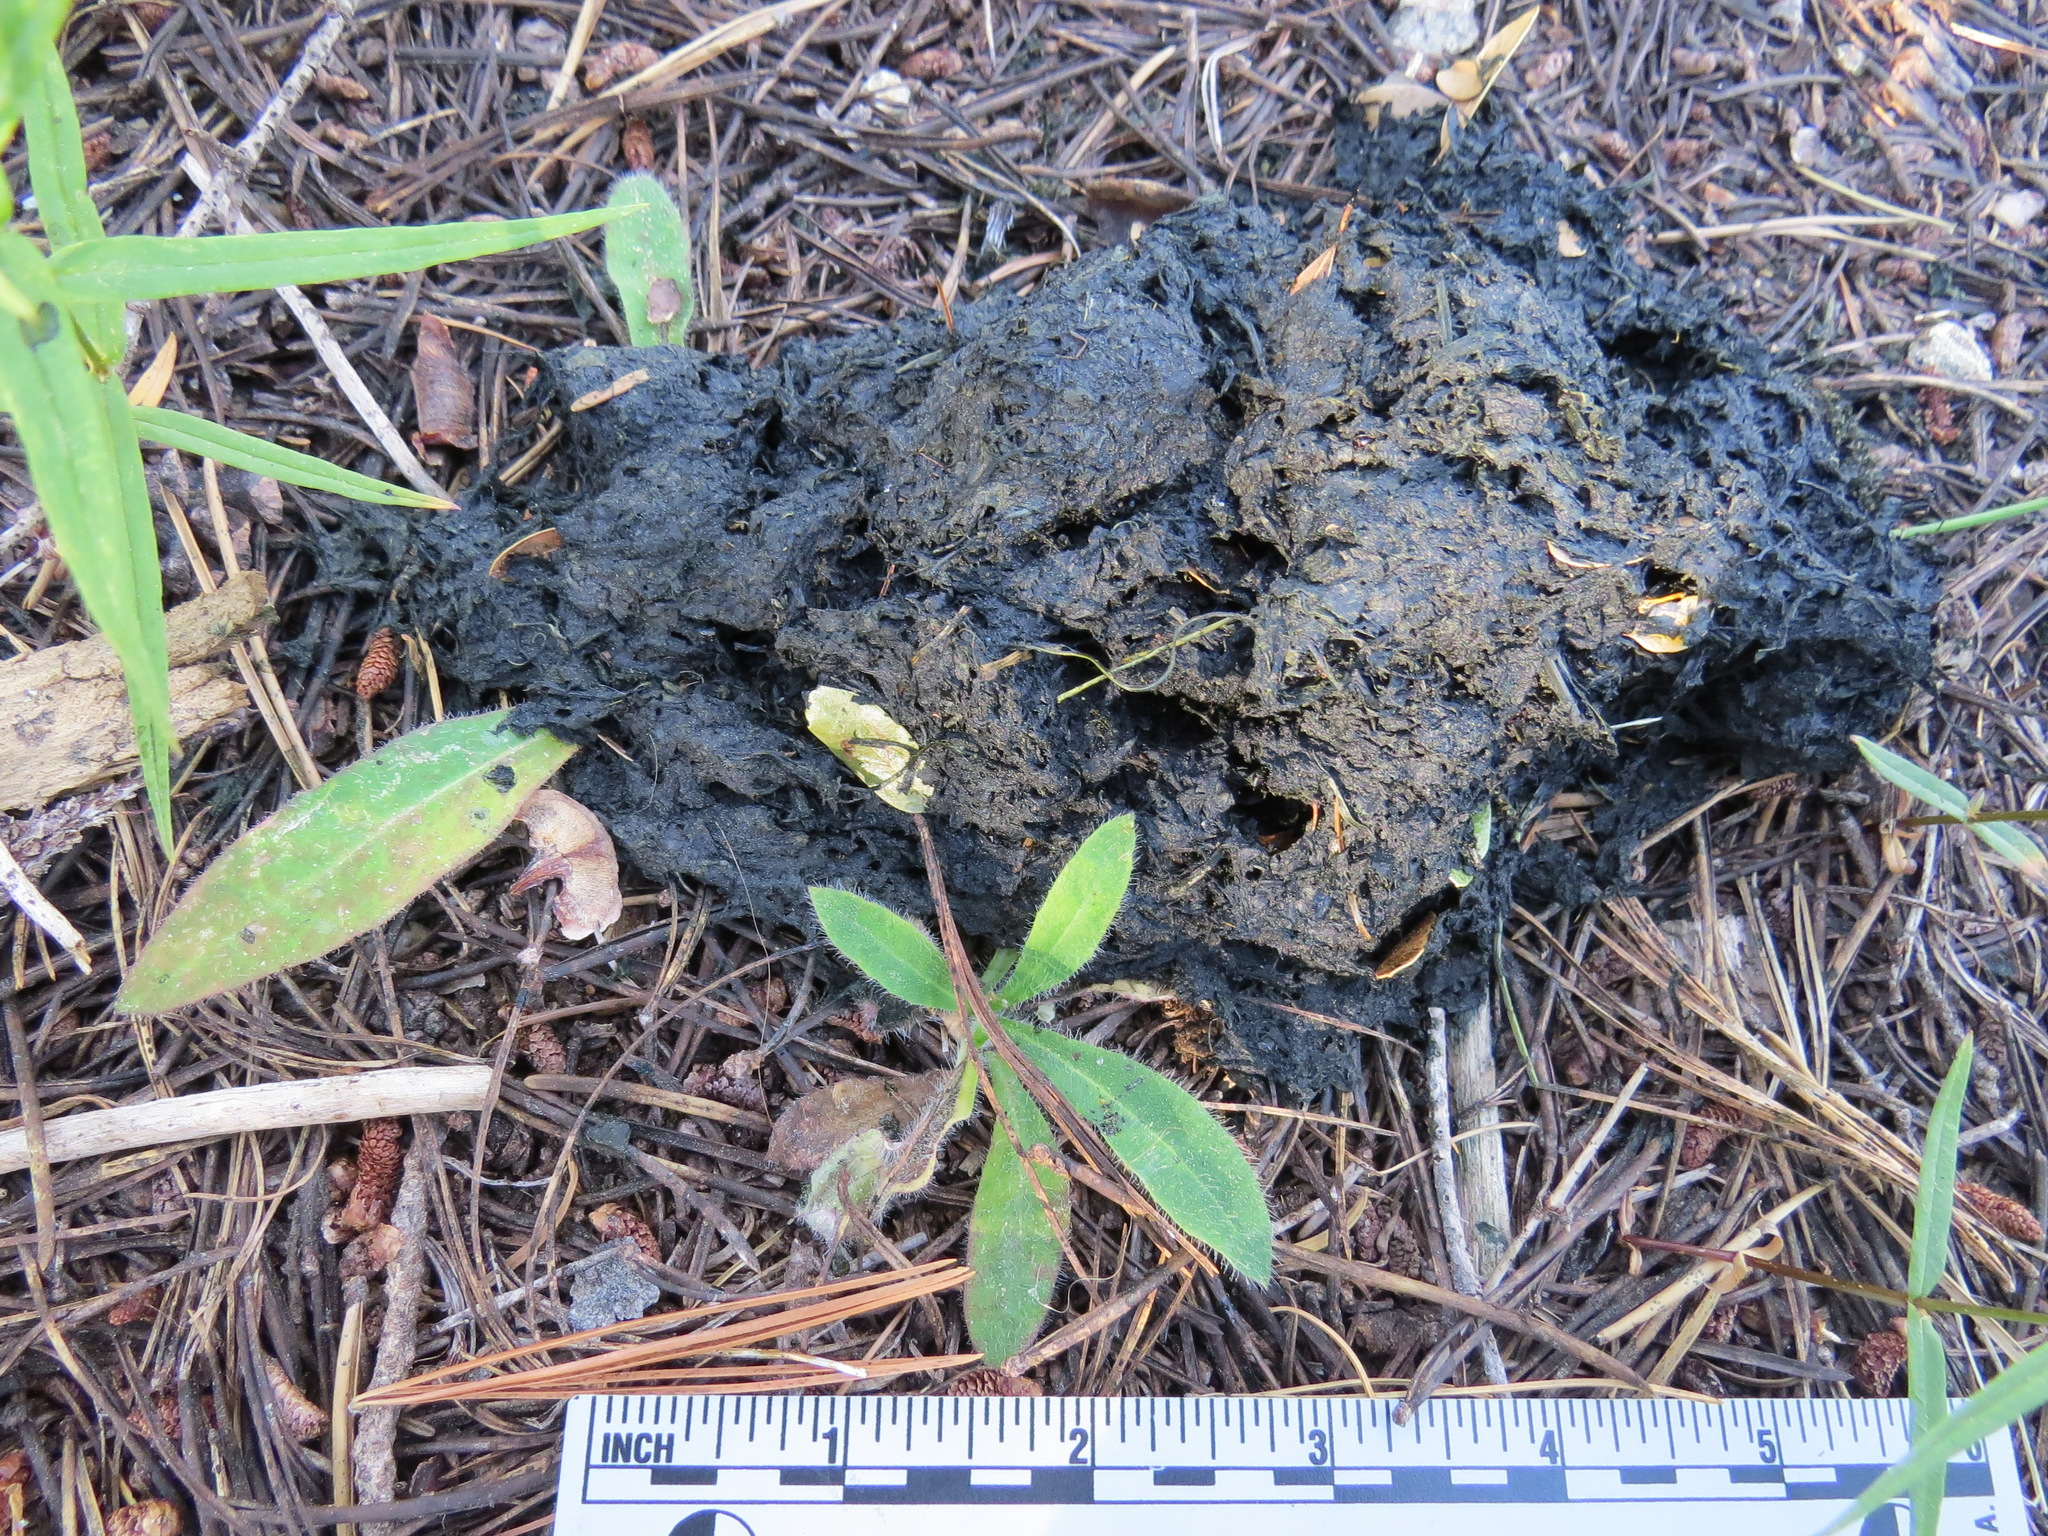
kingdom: Animalia
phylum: Chordata
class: Mammalia
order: Carnivora
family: Ursidae
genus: Ursus
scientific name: Ursus americanus
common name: American black bear
